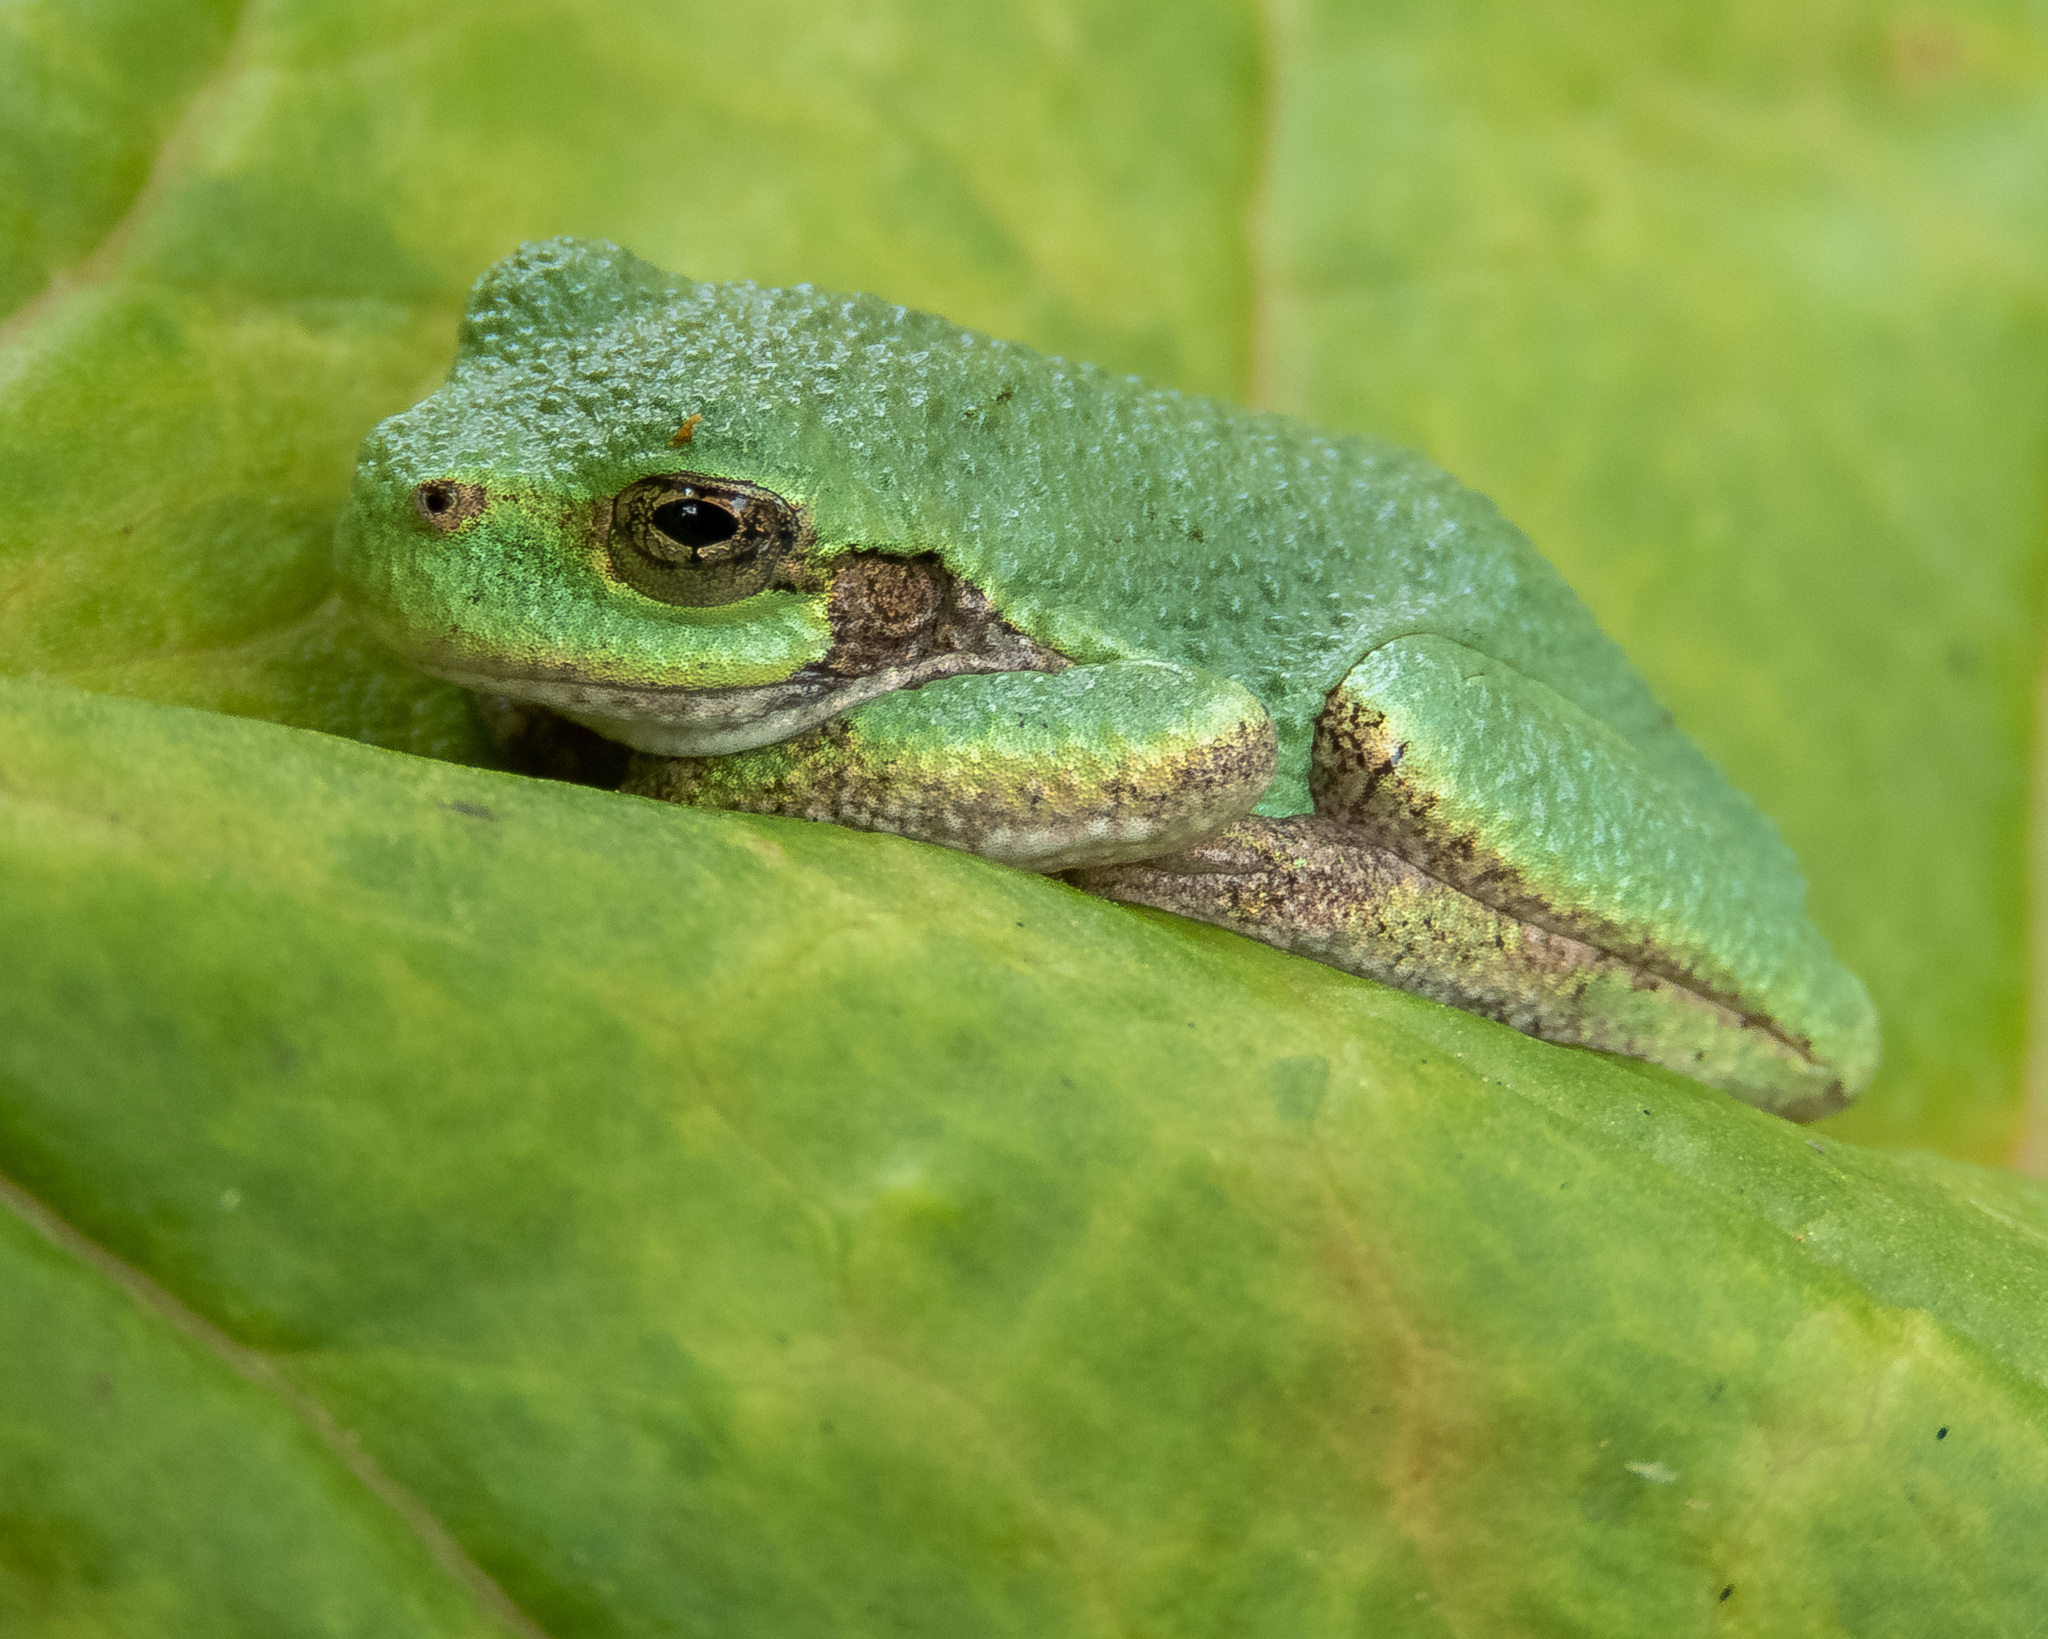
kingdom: Animalia
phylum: Chordata
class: Amphibia
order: Anura
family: Hylidae
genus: Dryophytes
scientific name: Dryophytes versicolor
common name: Gray treefrog
